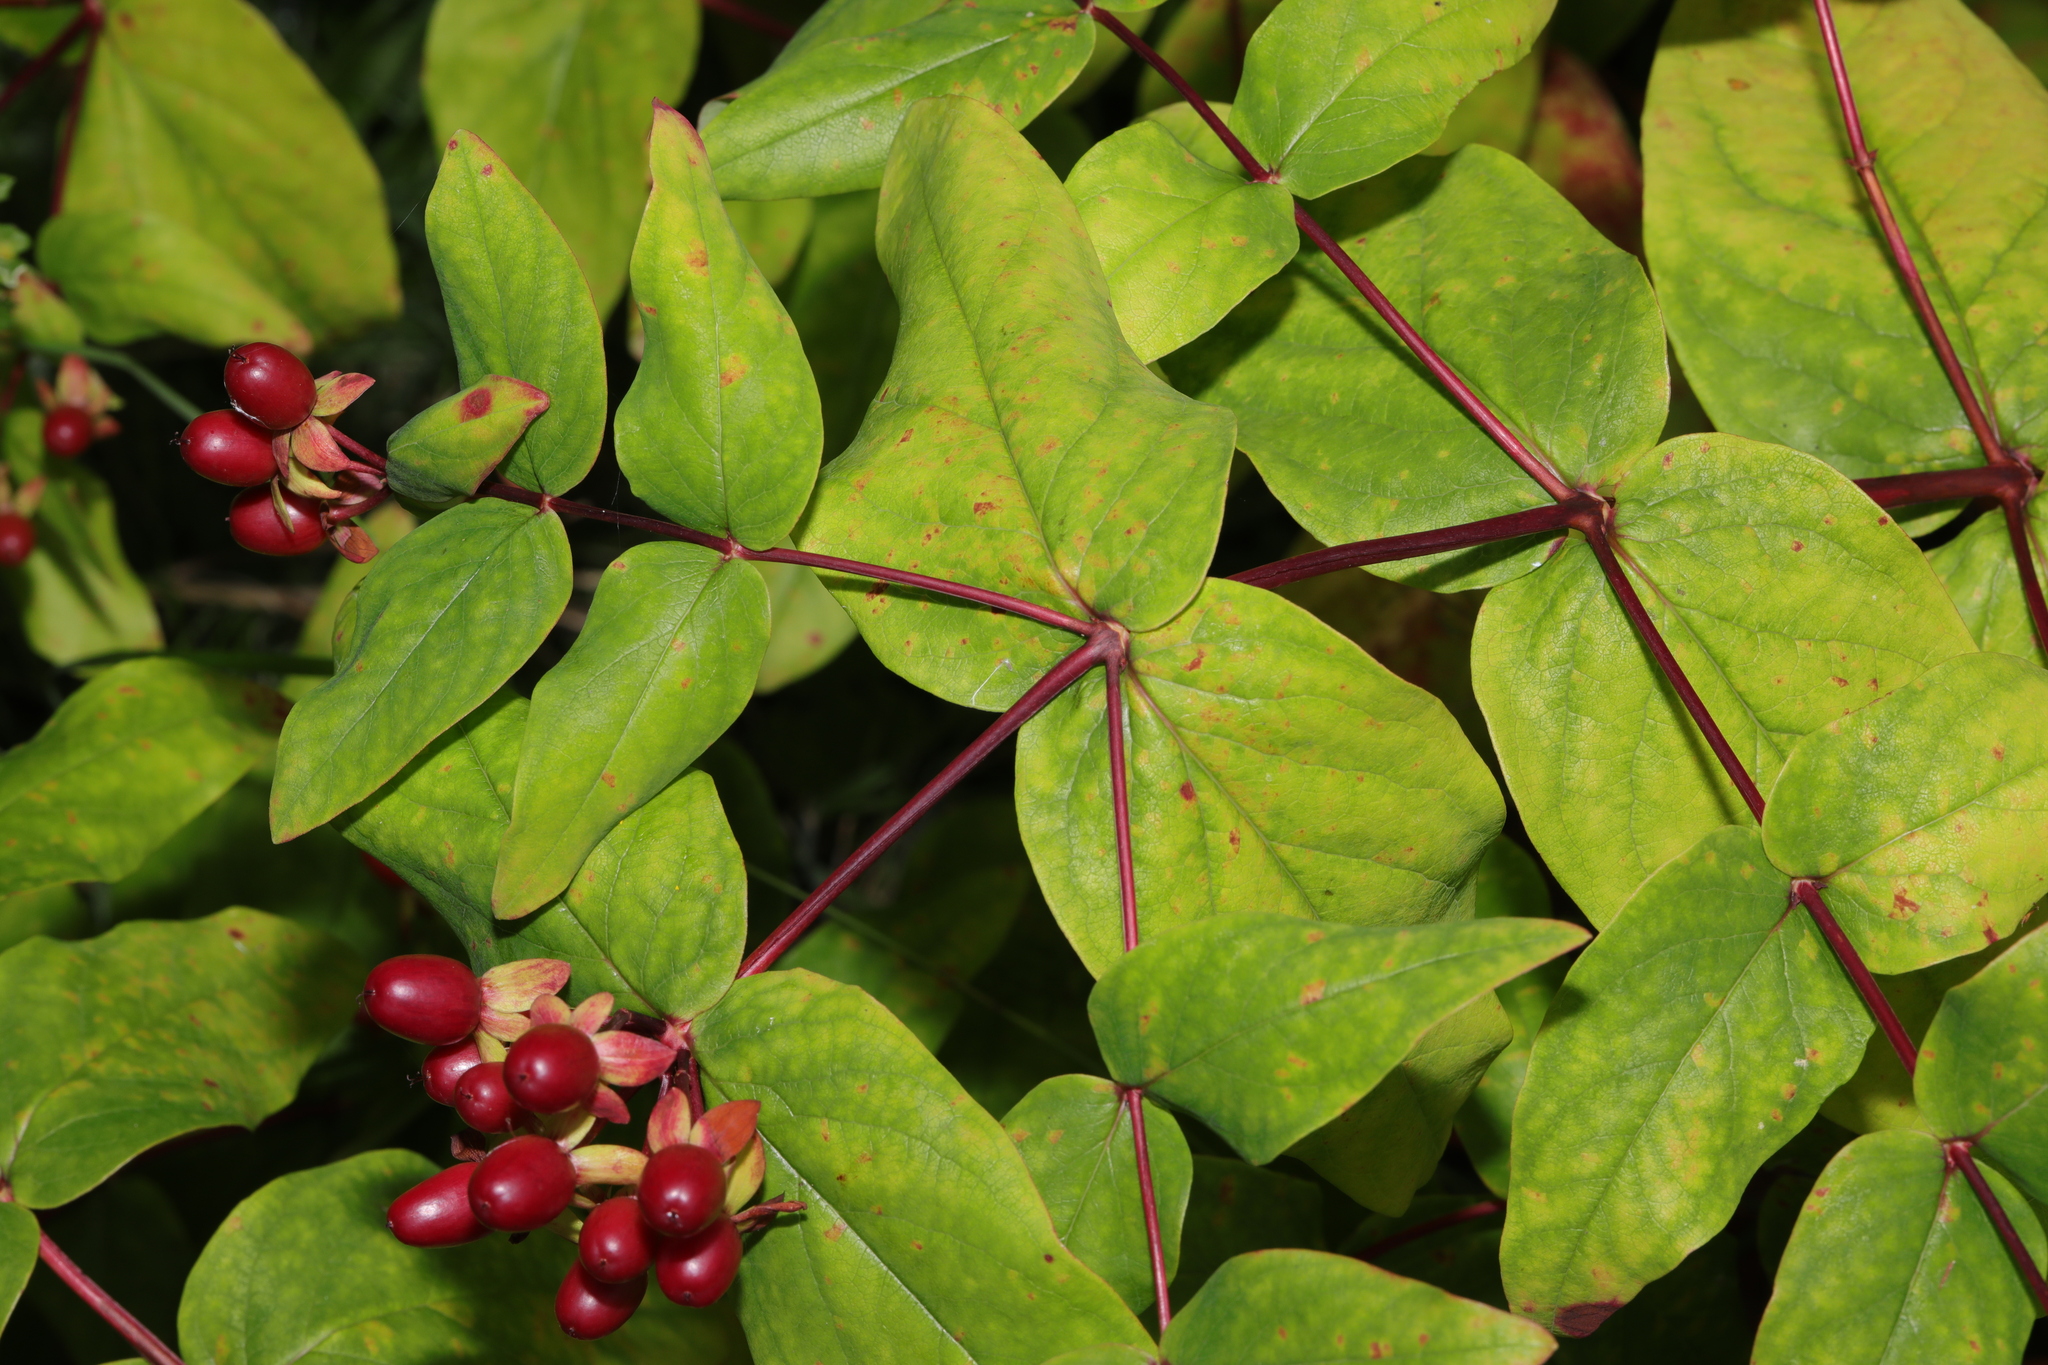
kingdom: Plantae
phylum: Tracheophyta
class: Magnoliopsida
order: Malpighiales
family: Hypericaceae
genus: Hypericum
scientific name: Hypericum androsaemum
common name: Sweet-amber
